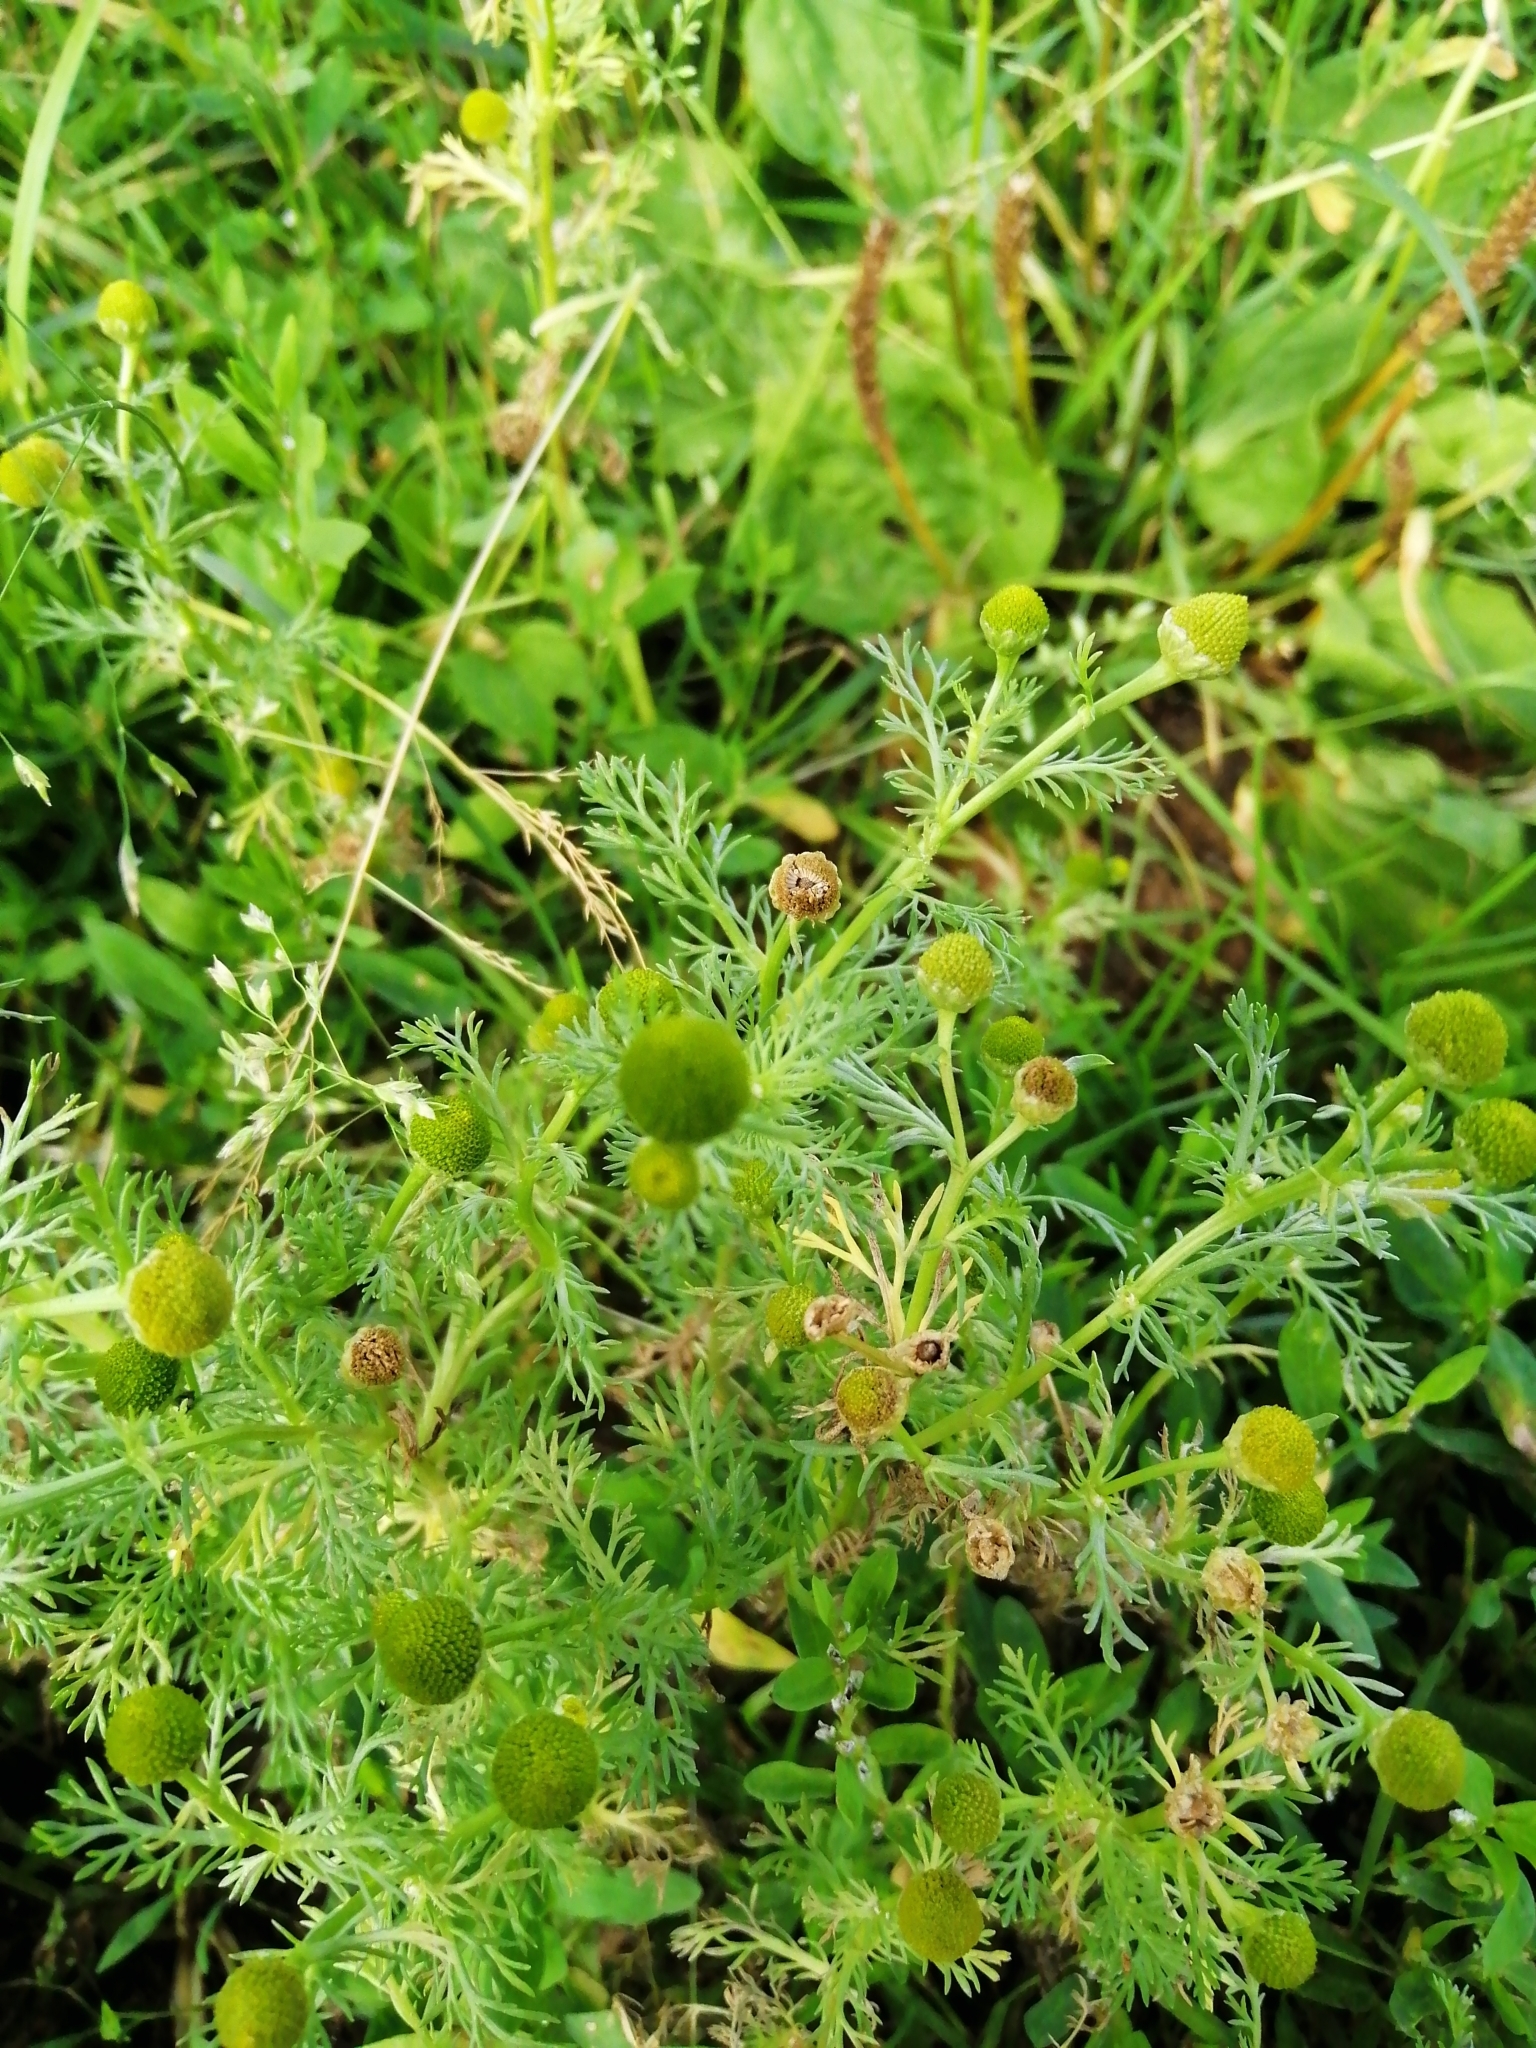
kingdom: Plantae
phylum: Tracheophyta
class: Magnoliopsida
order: Asterales
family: Asteraceae
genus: Matricaria
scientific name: Matricaria discoidea
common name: Disc mayweed
